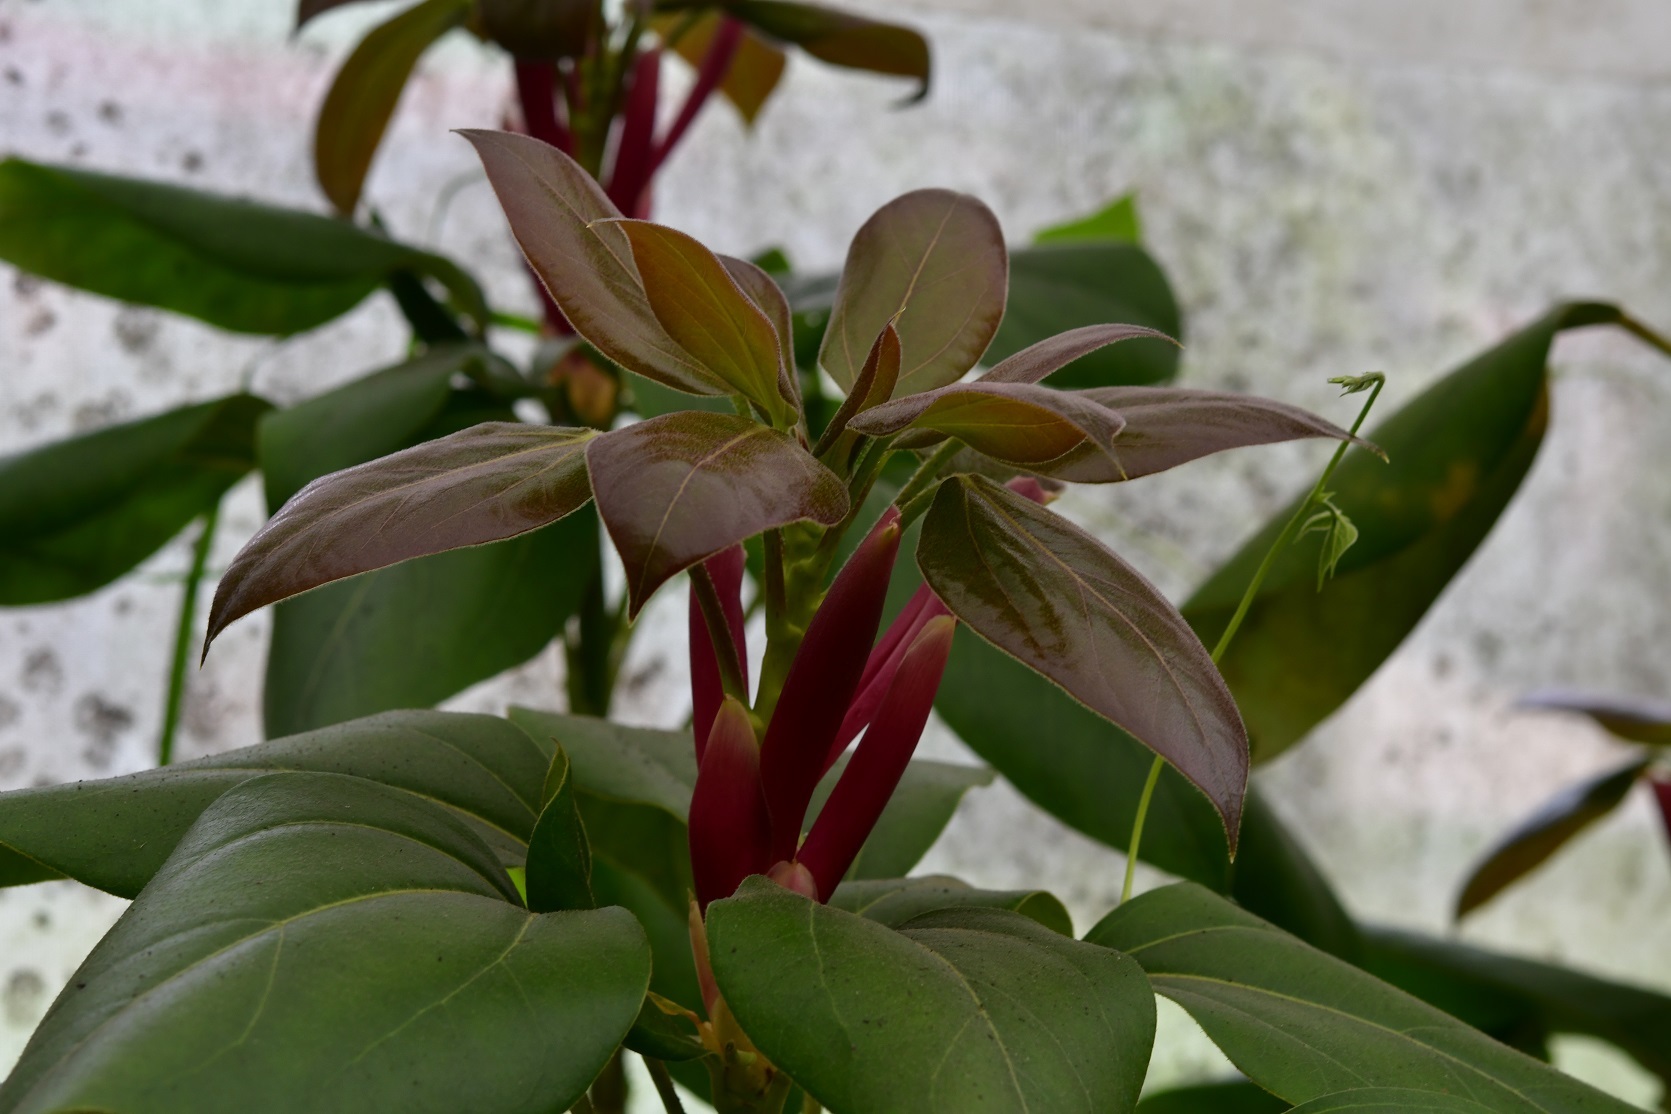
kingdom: Plantae
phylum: Tracheophyta
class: Magnoliopsida
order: Apiales
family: Araliaceae
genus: Oreopanax
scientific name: Oreopanax arcanus
